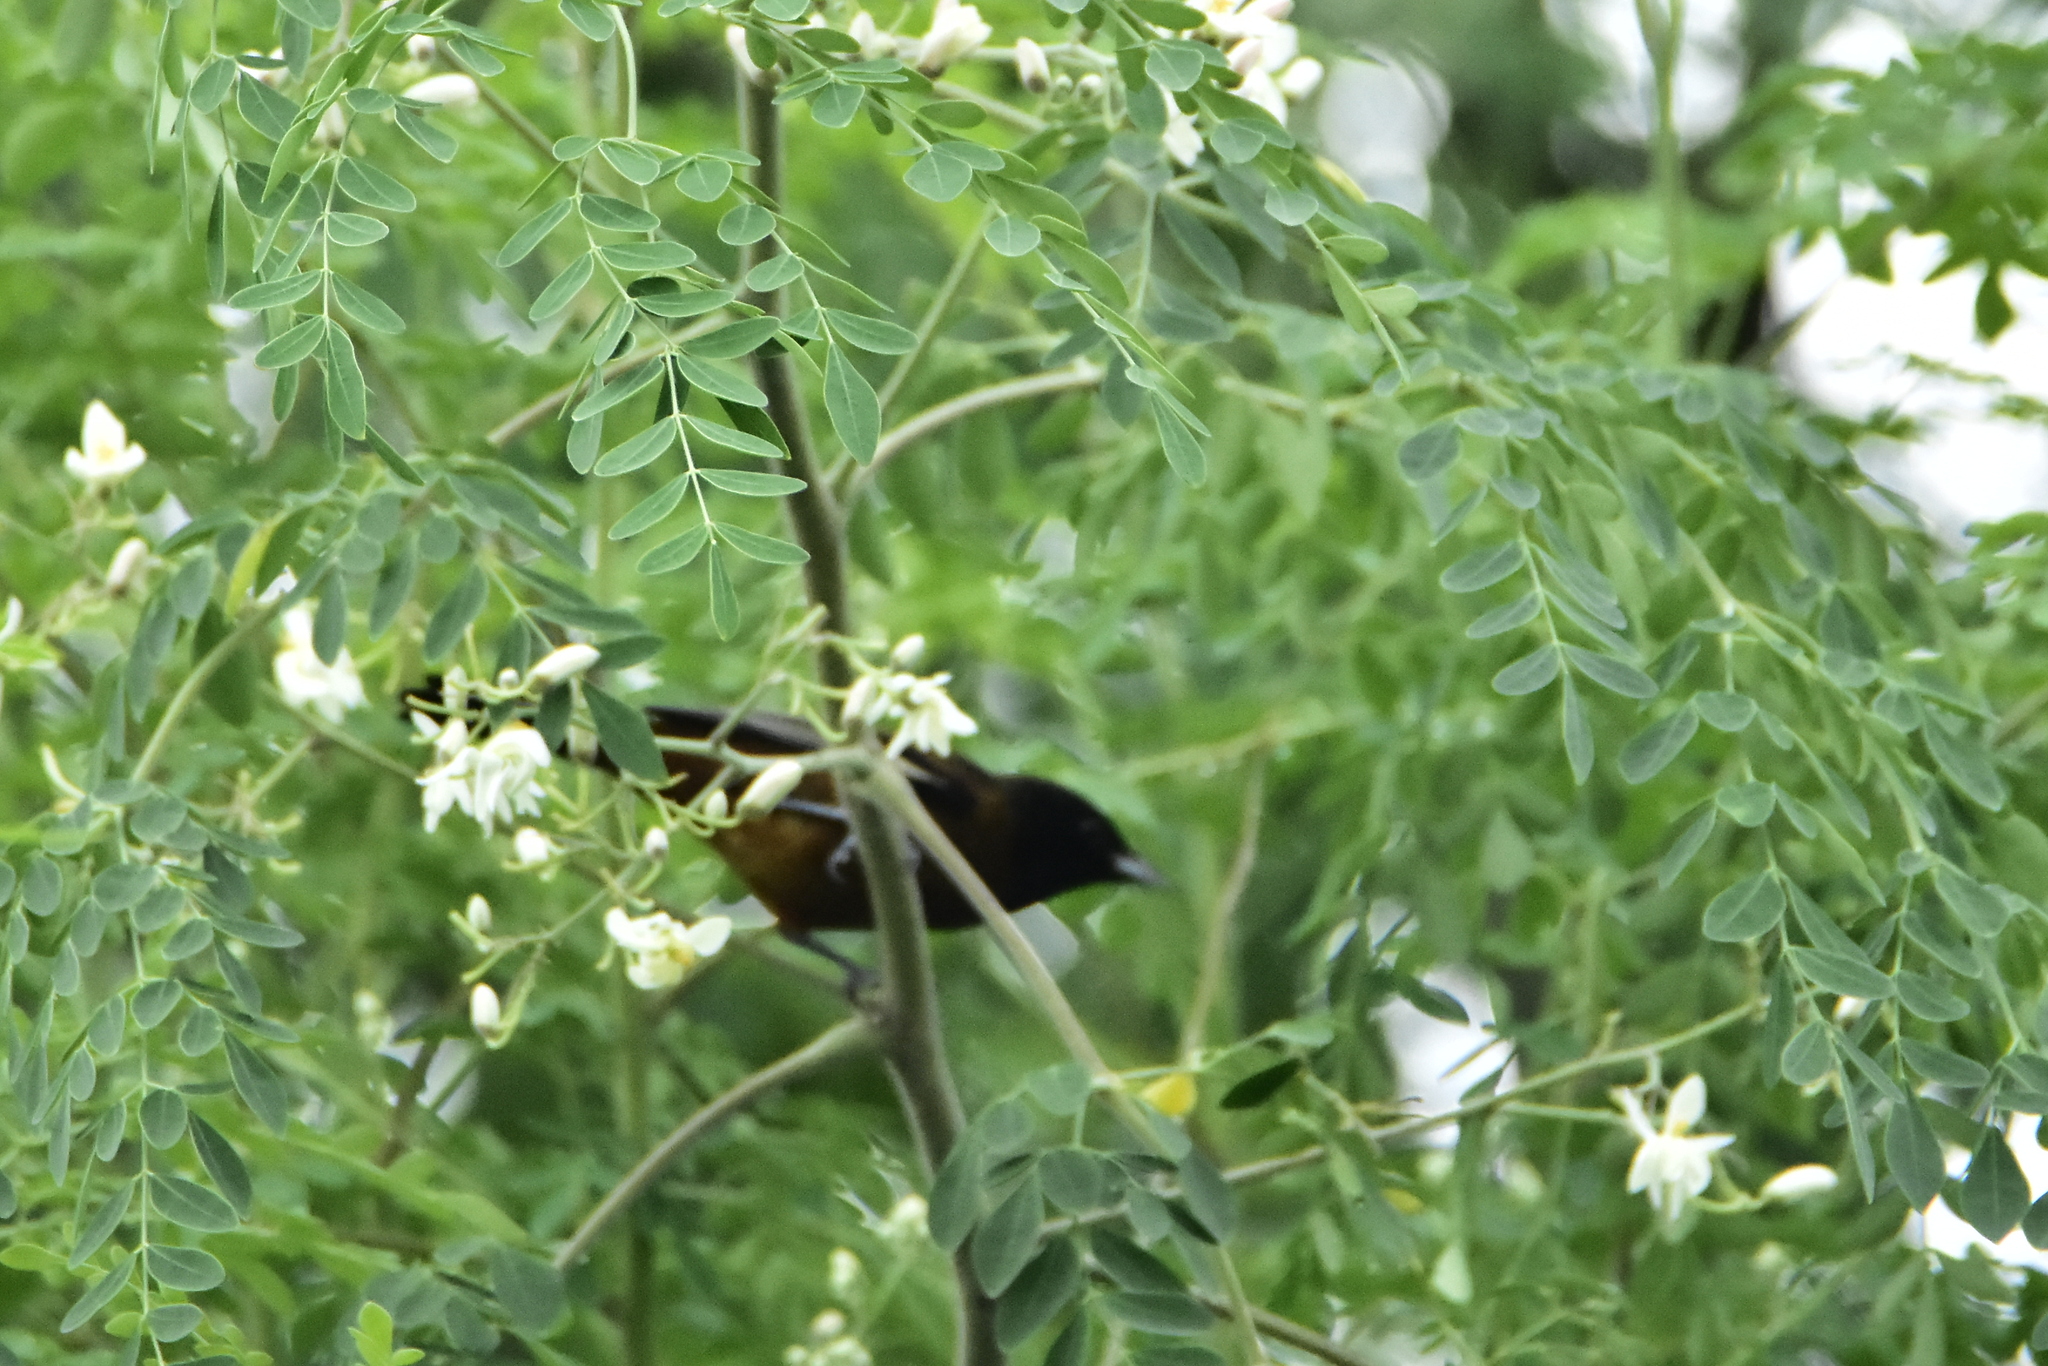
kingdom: Animalia
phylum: Chordata
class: Aves
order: Passeriformes
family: Icteridae
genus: Icterus
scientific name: Icterus spurius
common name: Orchard oriole
